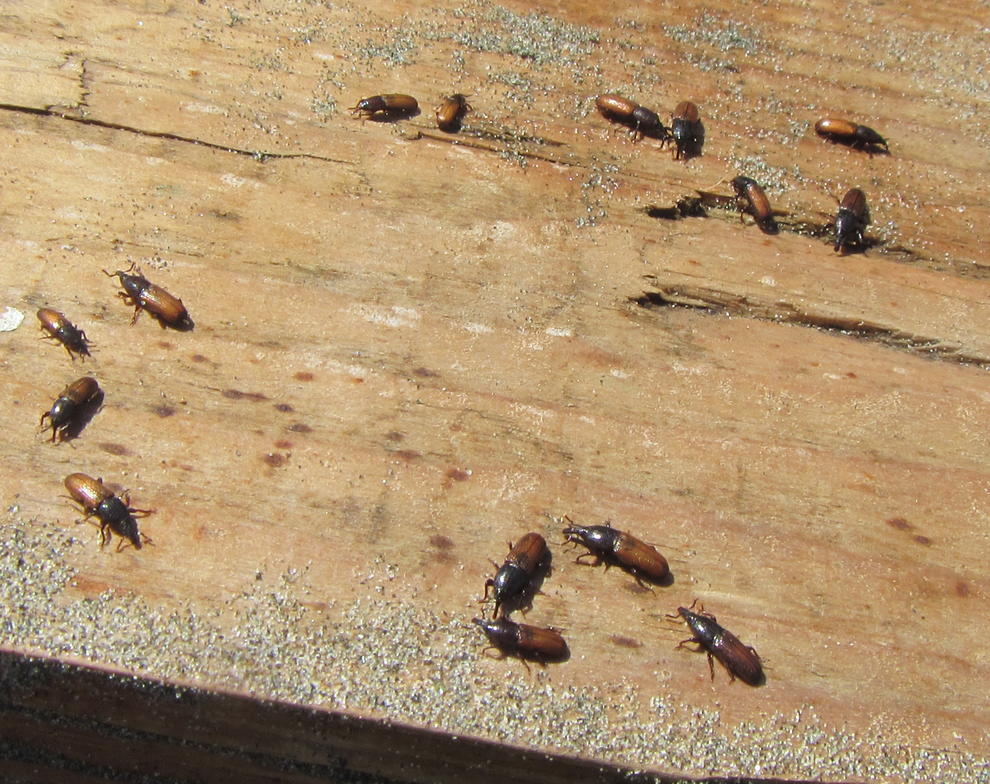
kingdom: Animalia
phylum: Arthropoda
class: Insecta
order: Coleoptera
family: Curculionidae
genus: Mesites
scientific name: Mesites pallidipennis
